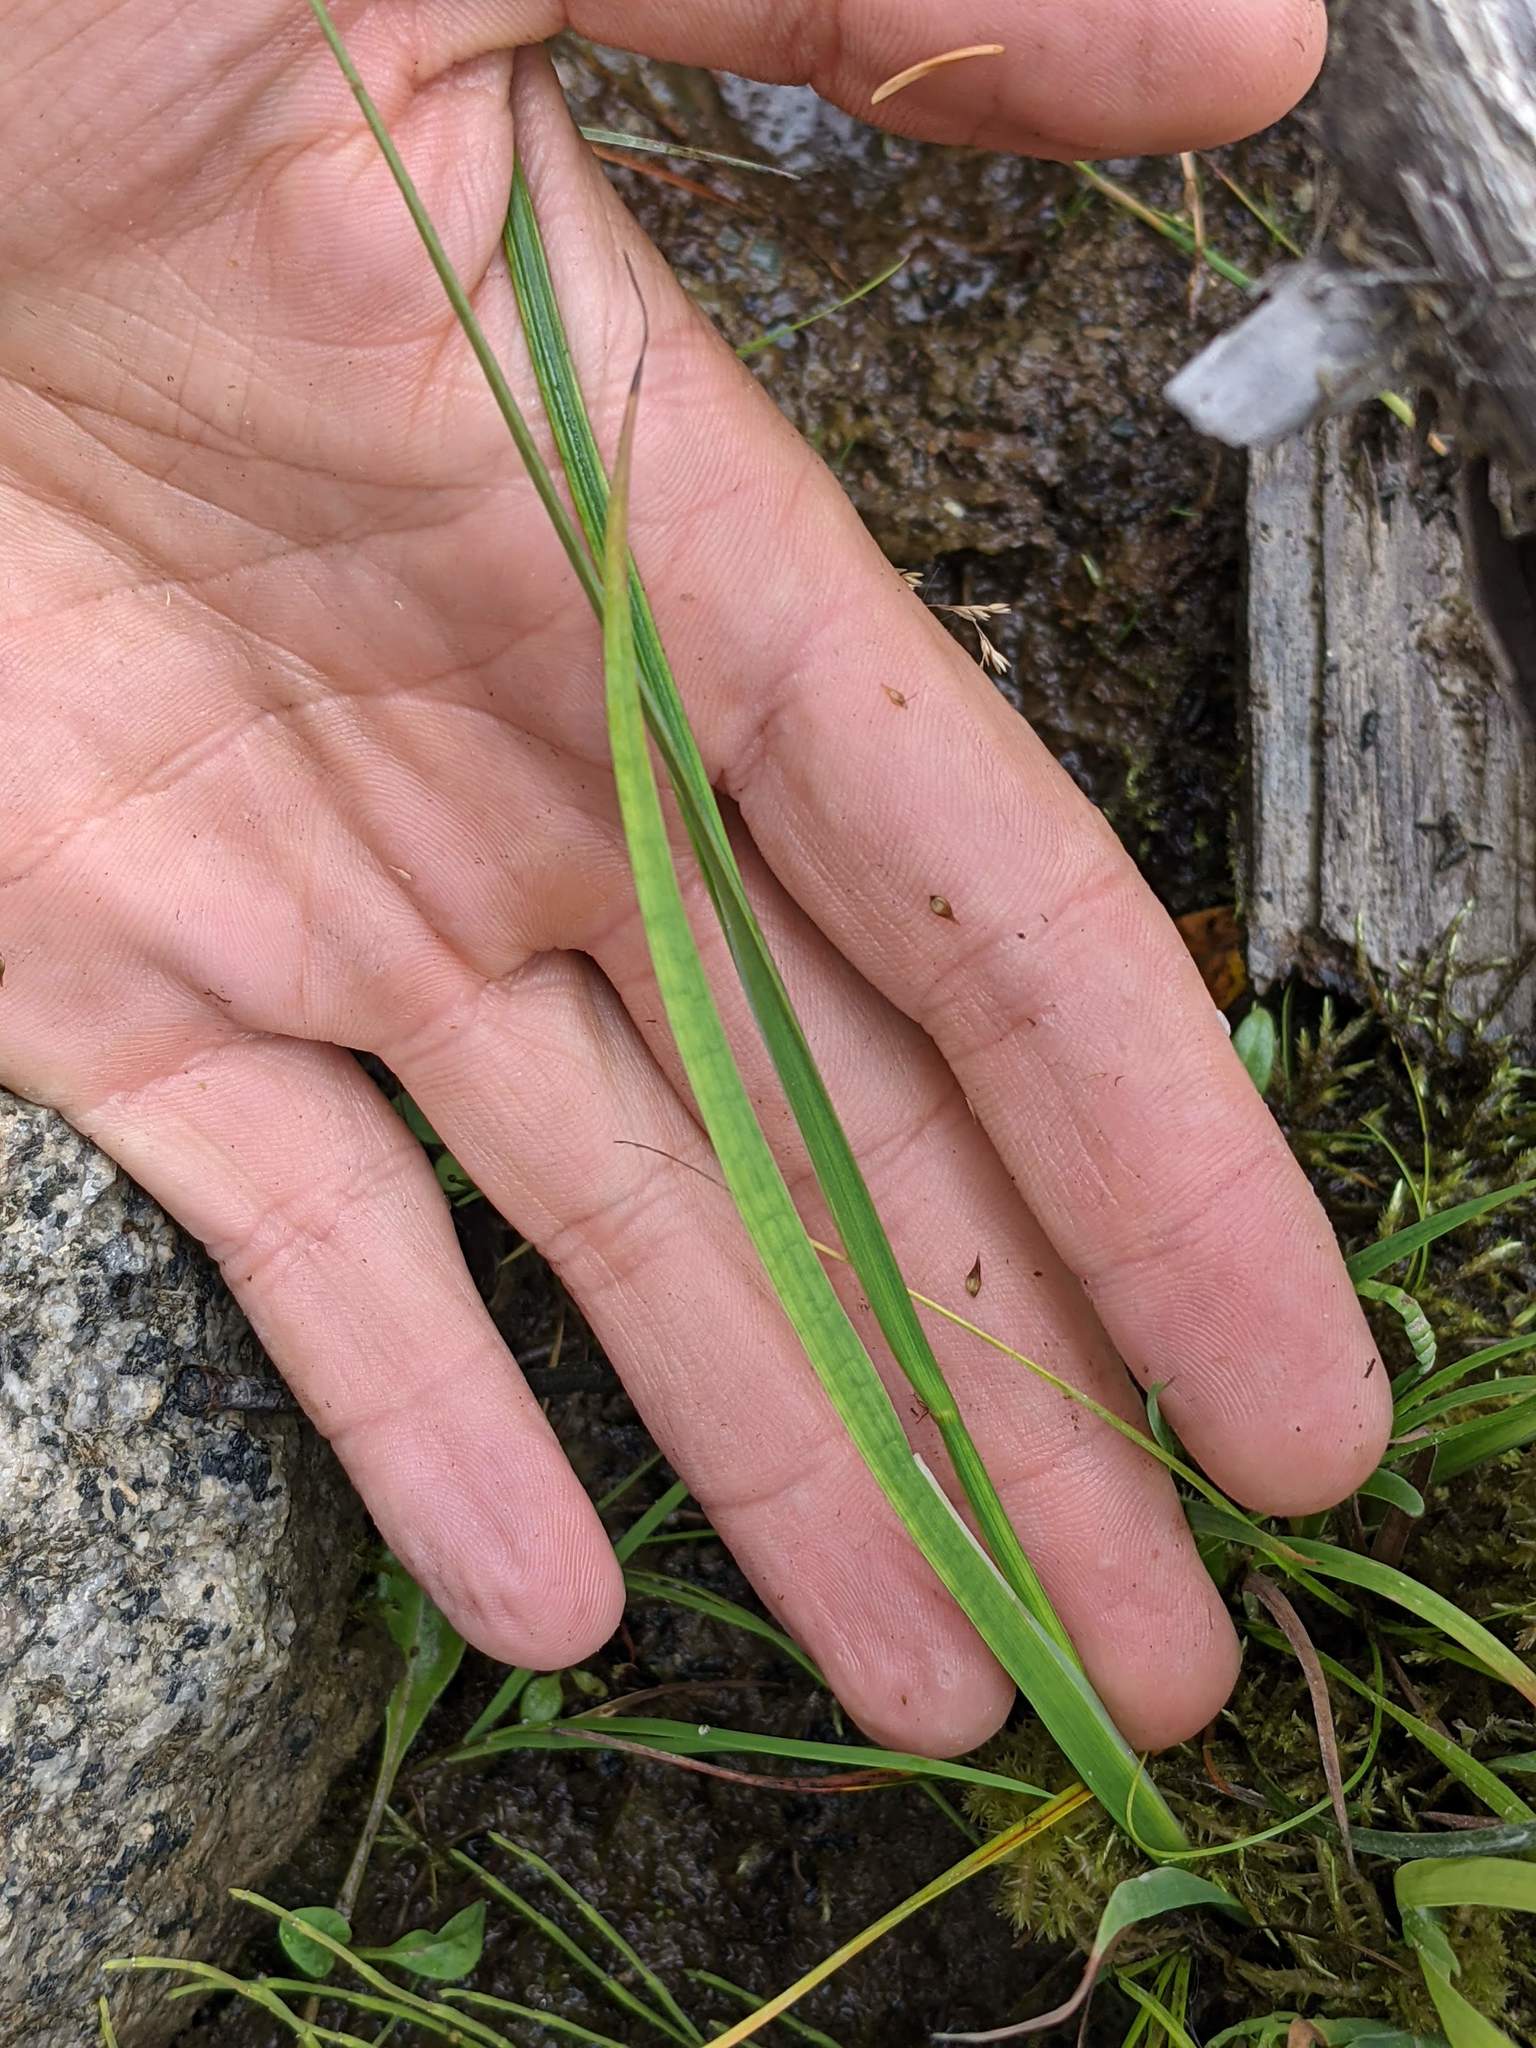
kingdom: Plantae
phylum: Tracheophyta
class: Liliopsida
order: Poales
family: Juncaceae
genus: Juncus
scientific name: Juncus ensifolius
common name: Sword-leaved rush
